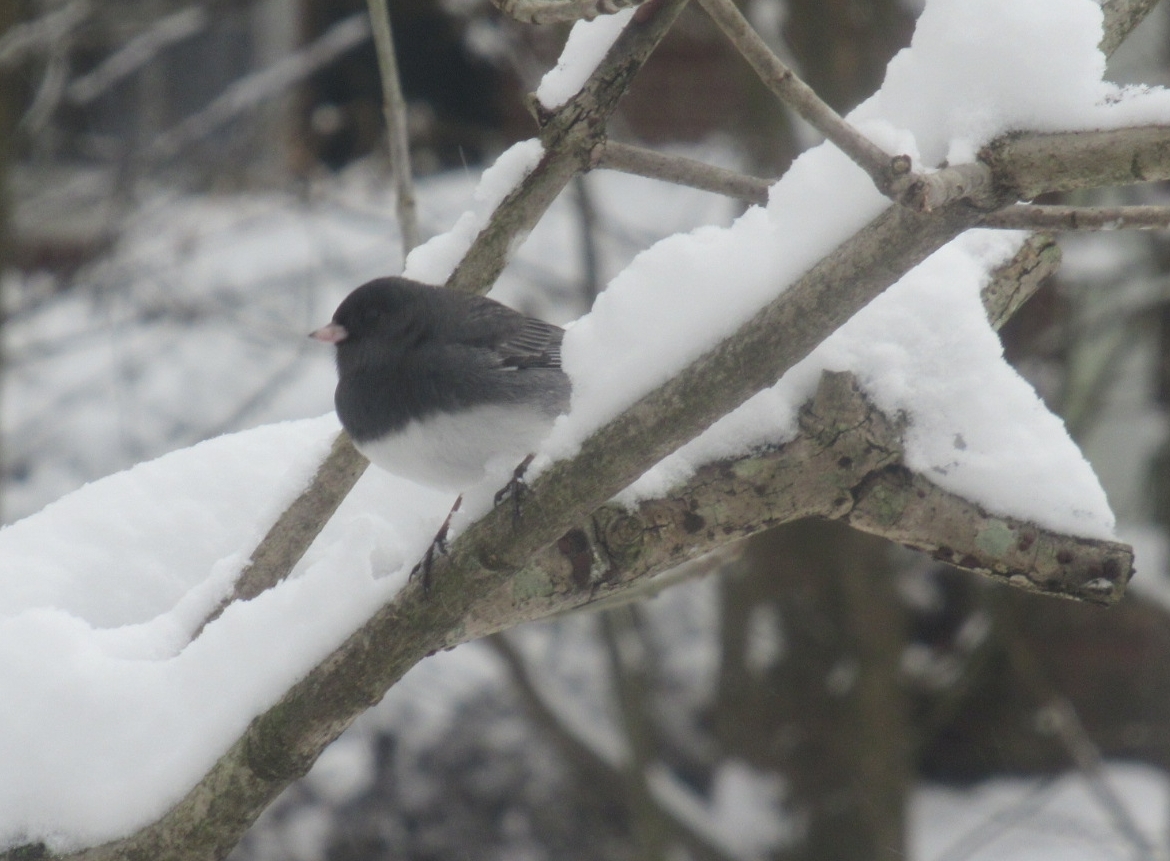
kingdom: Animalia
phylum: Chordata
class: Aves
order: Passeriformes
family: Passerellidae
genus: Junco
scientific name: Junco hyemalis
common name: Dark-eyed junco
